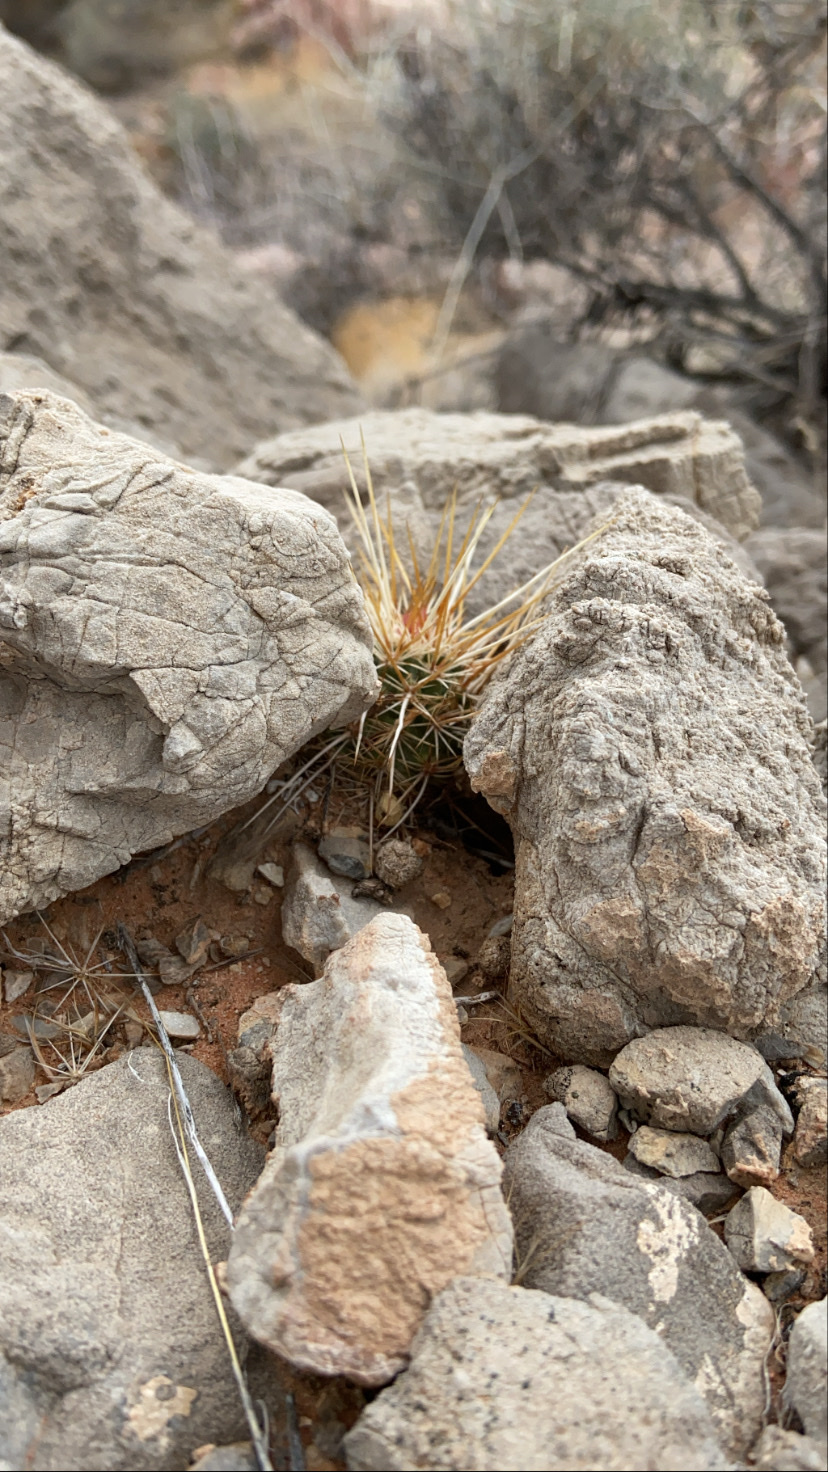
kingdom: Plantae
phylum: Tracheophyta
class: Magnoliopsida
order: Caryophyllales
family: Cactaceae
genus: Echinocereus
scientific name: Echinocereus engelmannii
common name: Engelmann's hedgehog cactus
